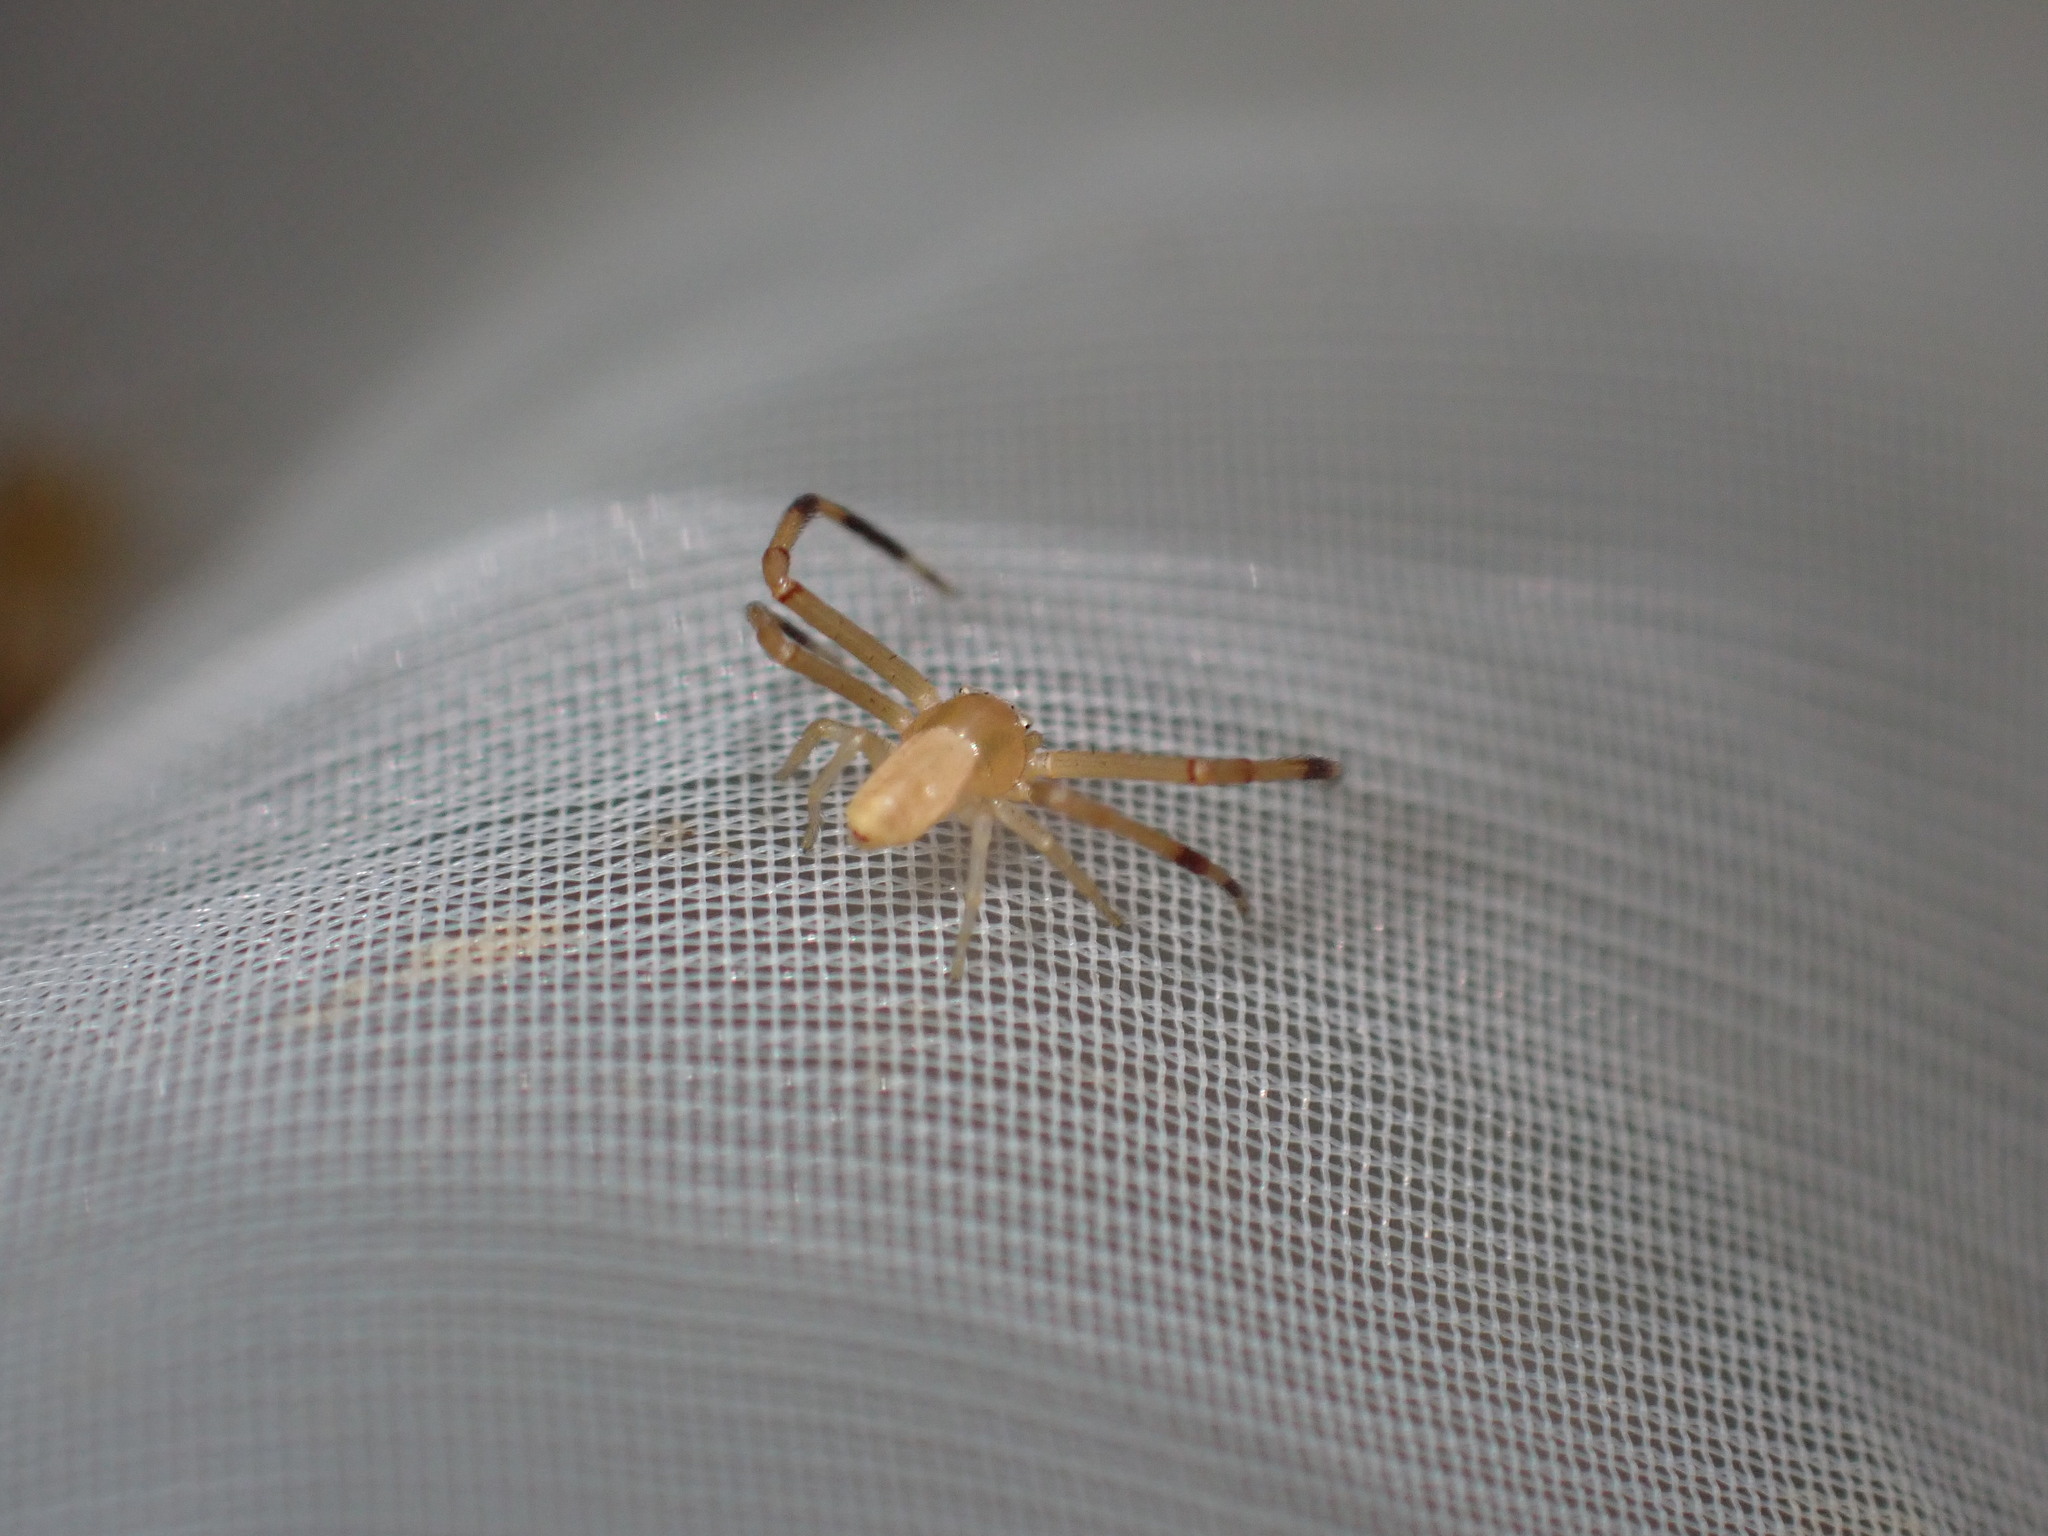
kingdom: Animalia
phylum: Arthropoda
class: Arachnida
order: Araneae
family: Thomisidae
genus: Runcinia
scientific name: Runcinia grammica
